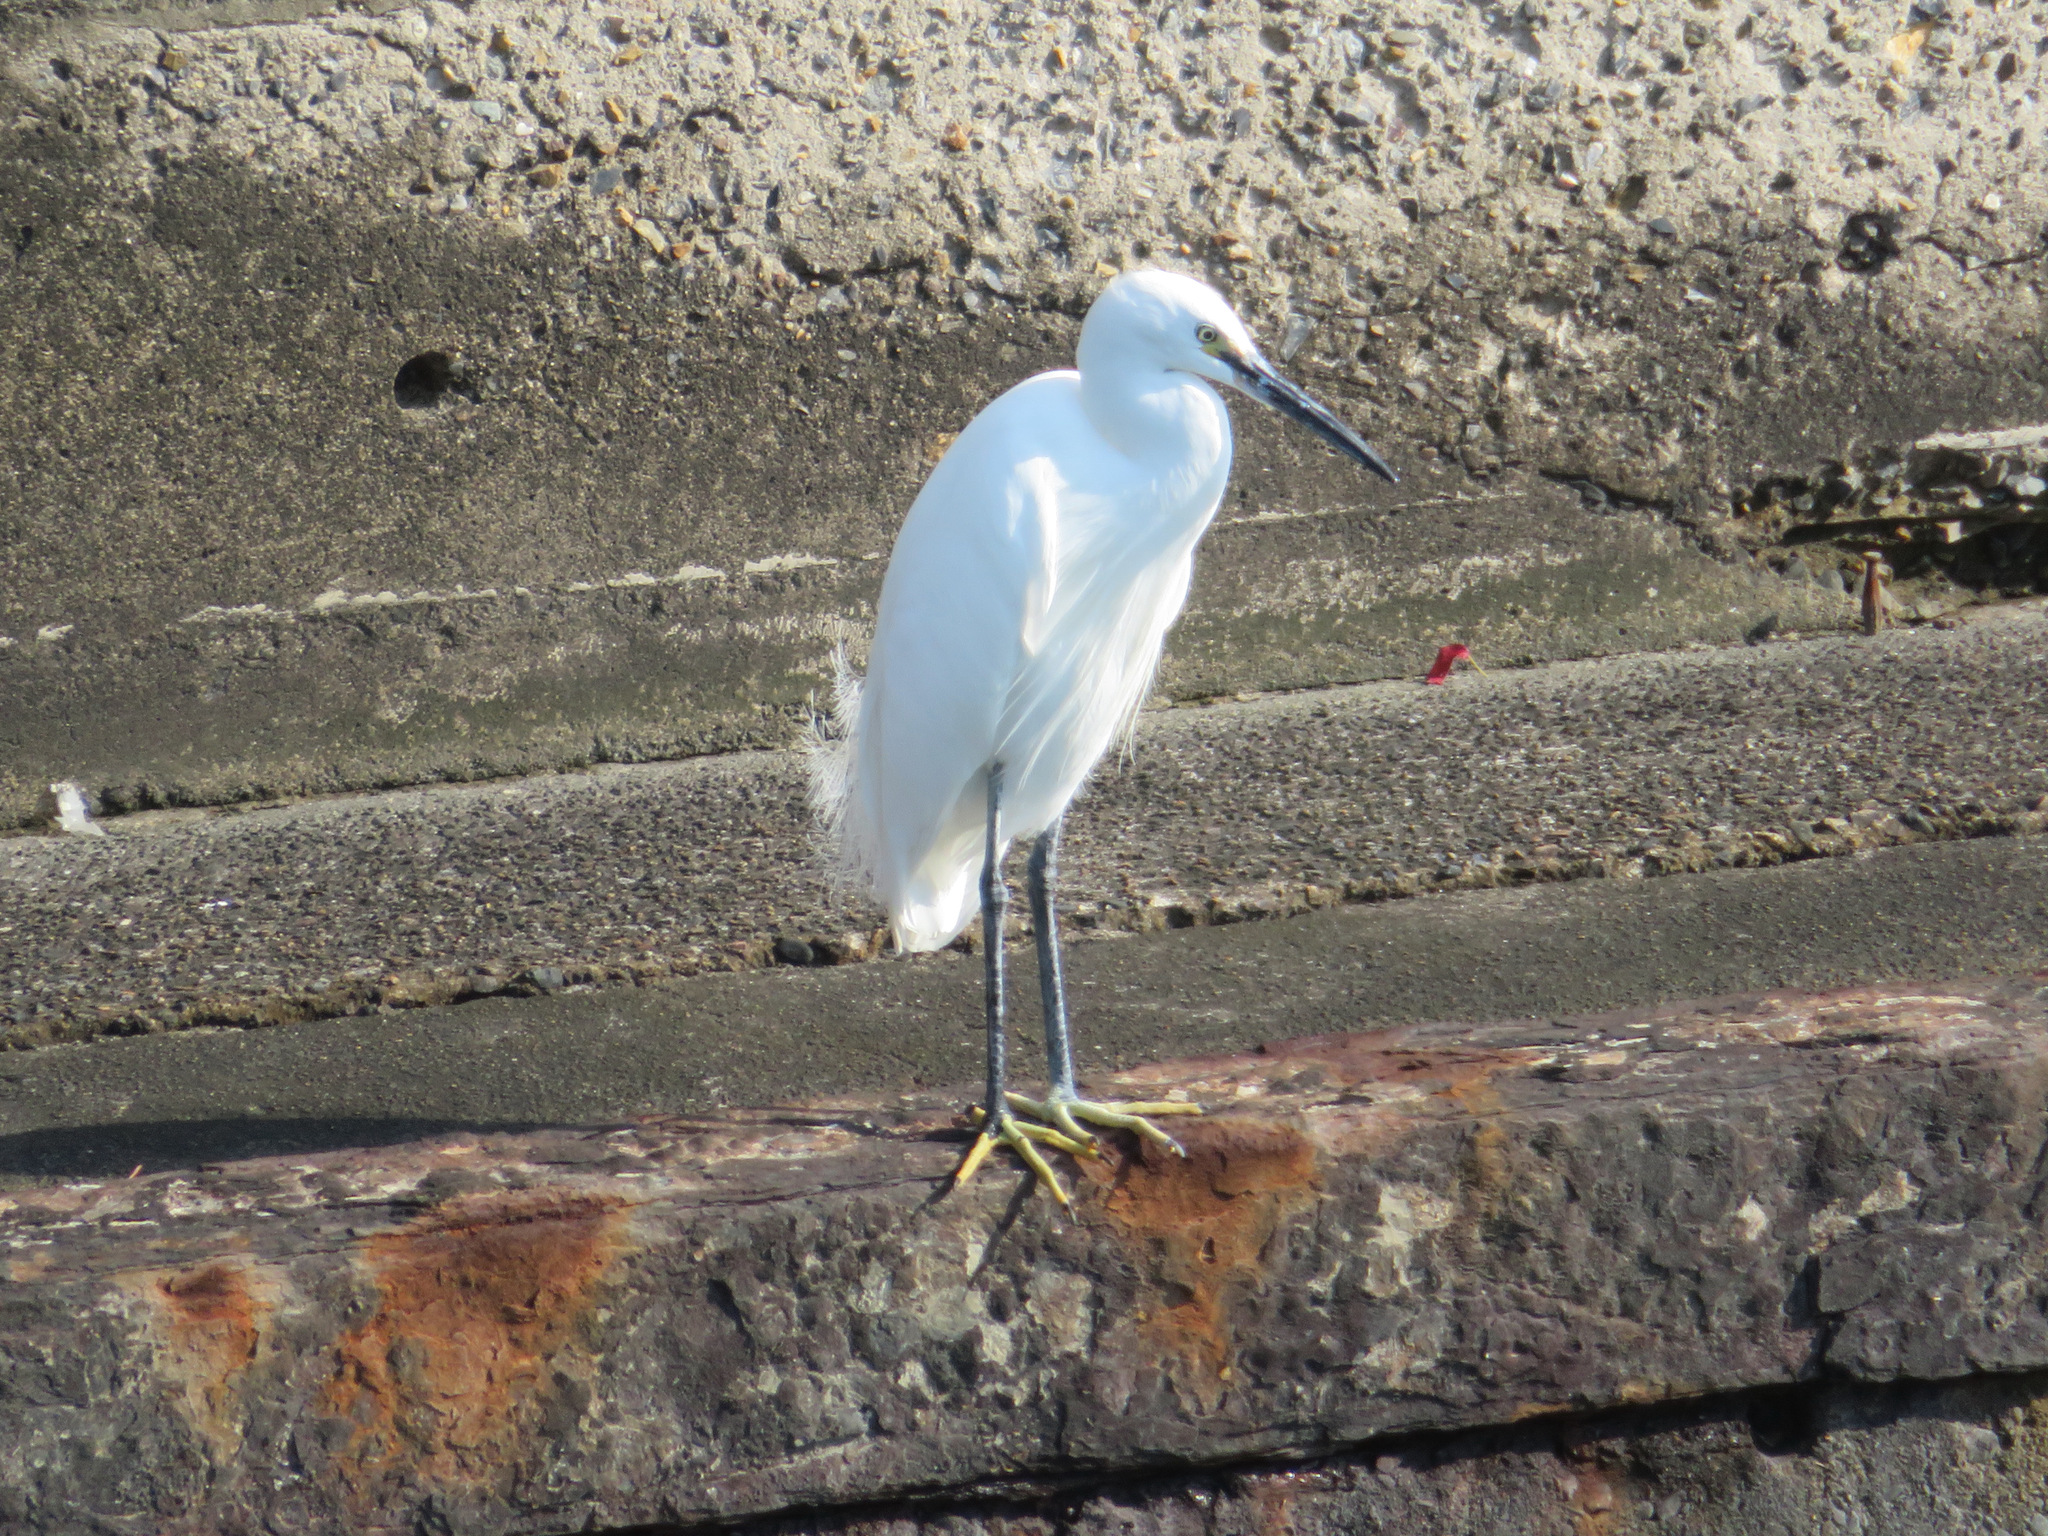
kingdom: Animalia
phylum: Chordata
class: Aves
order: Pelecaniformes
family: Ardeidae
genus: Egretta
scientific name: Egretta garzetta
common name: Little egret
